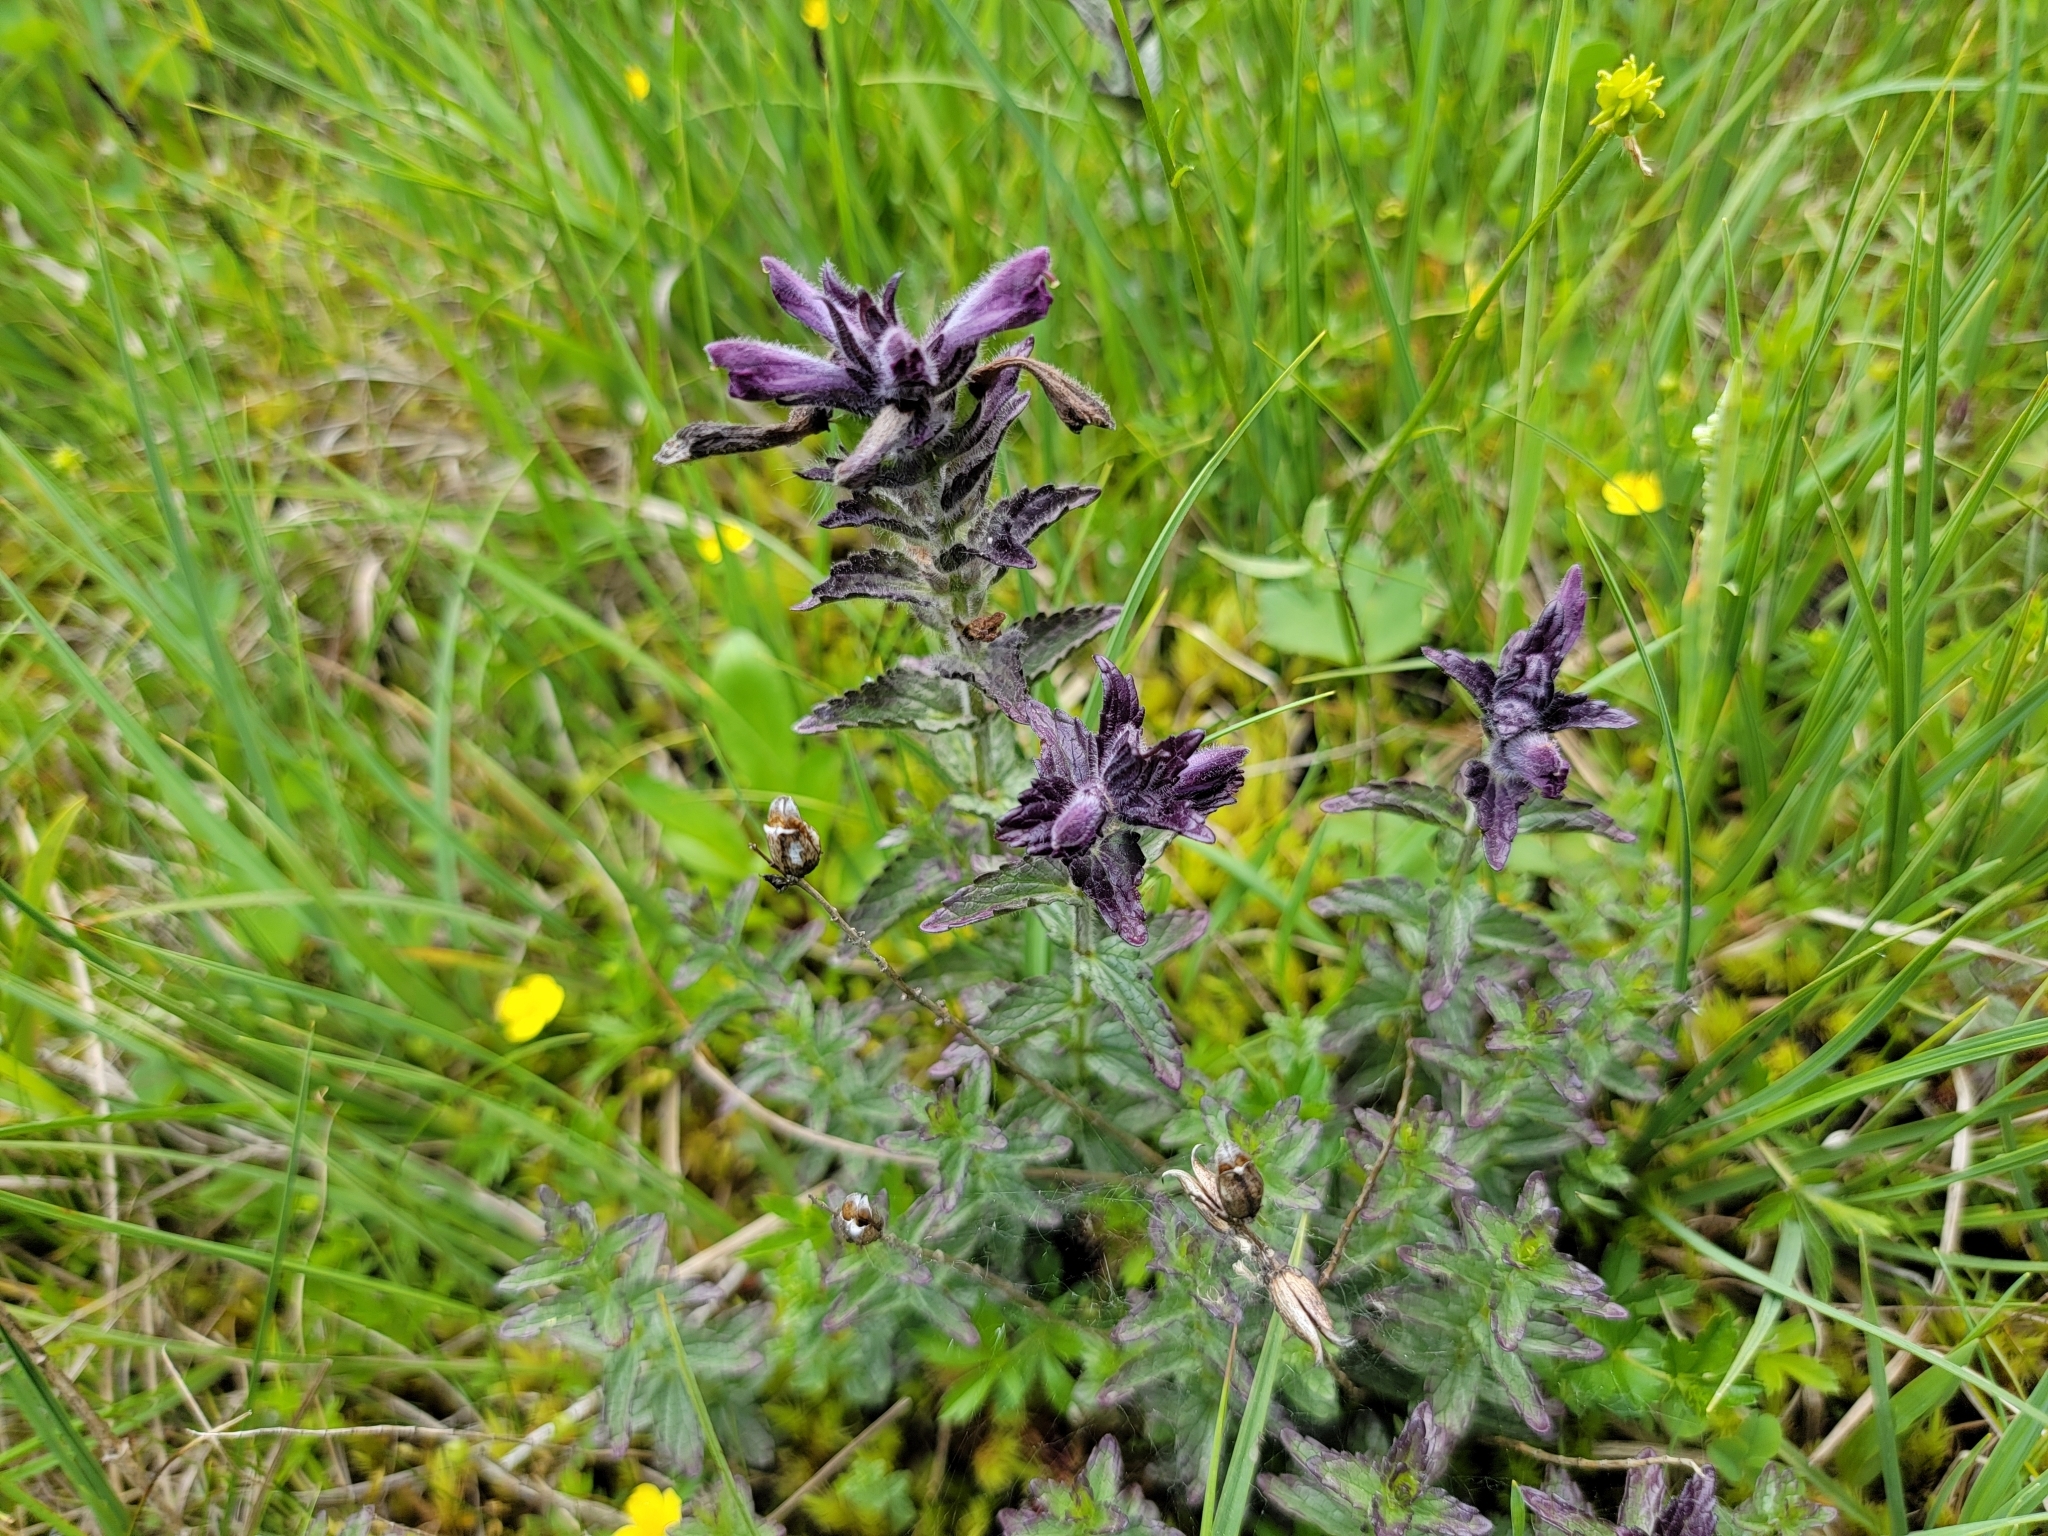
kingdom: Plantae
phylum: Tracheophyta
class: Magnoliopsida
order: Lamiales
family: Orobanchaceae
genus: Bartsia
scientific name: Bartsia alpina
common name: Alpine bartsia
